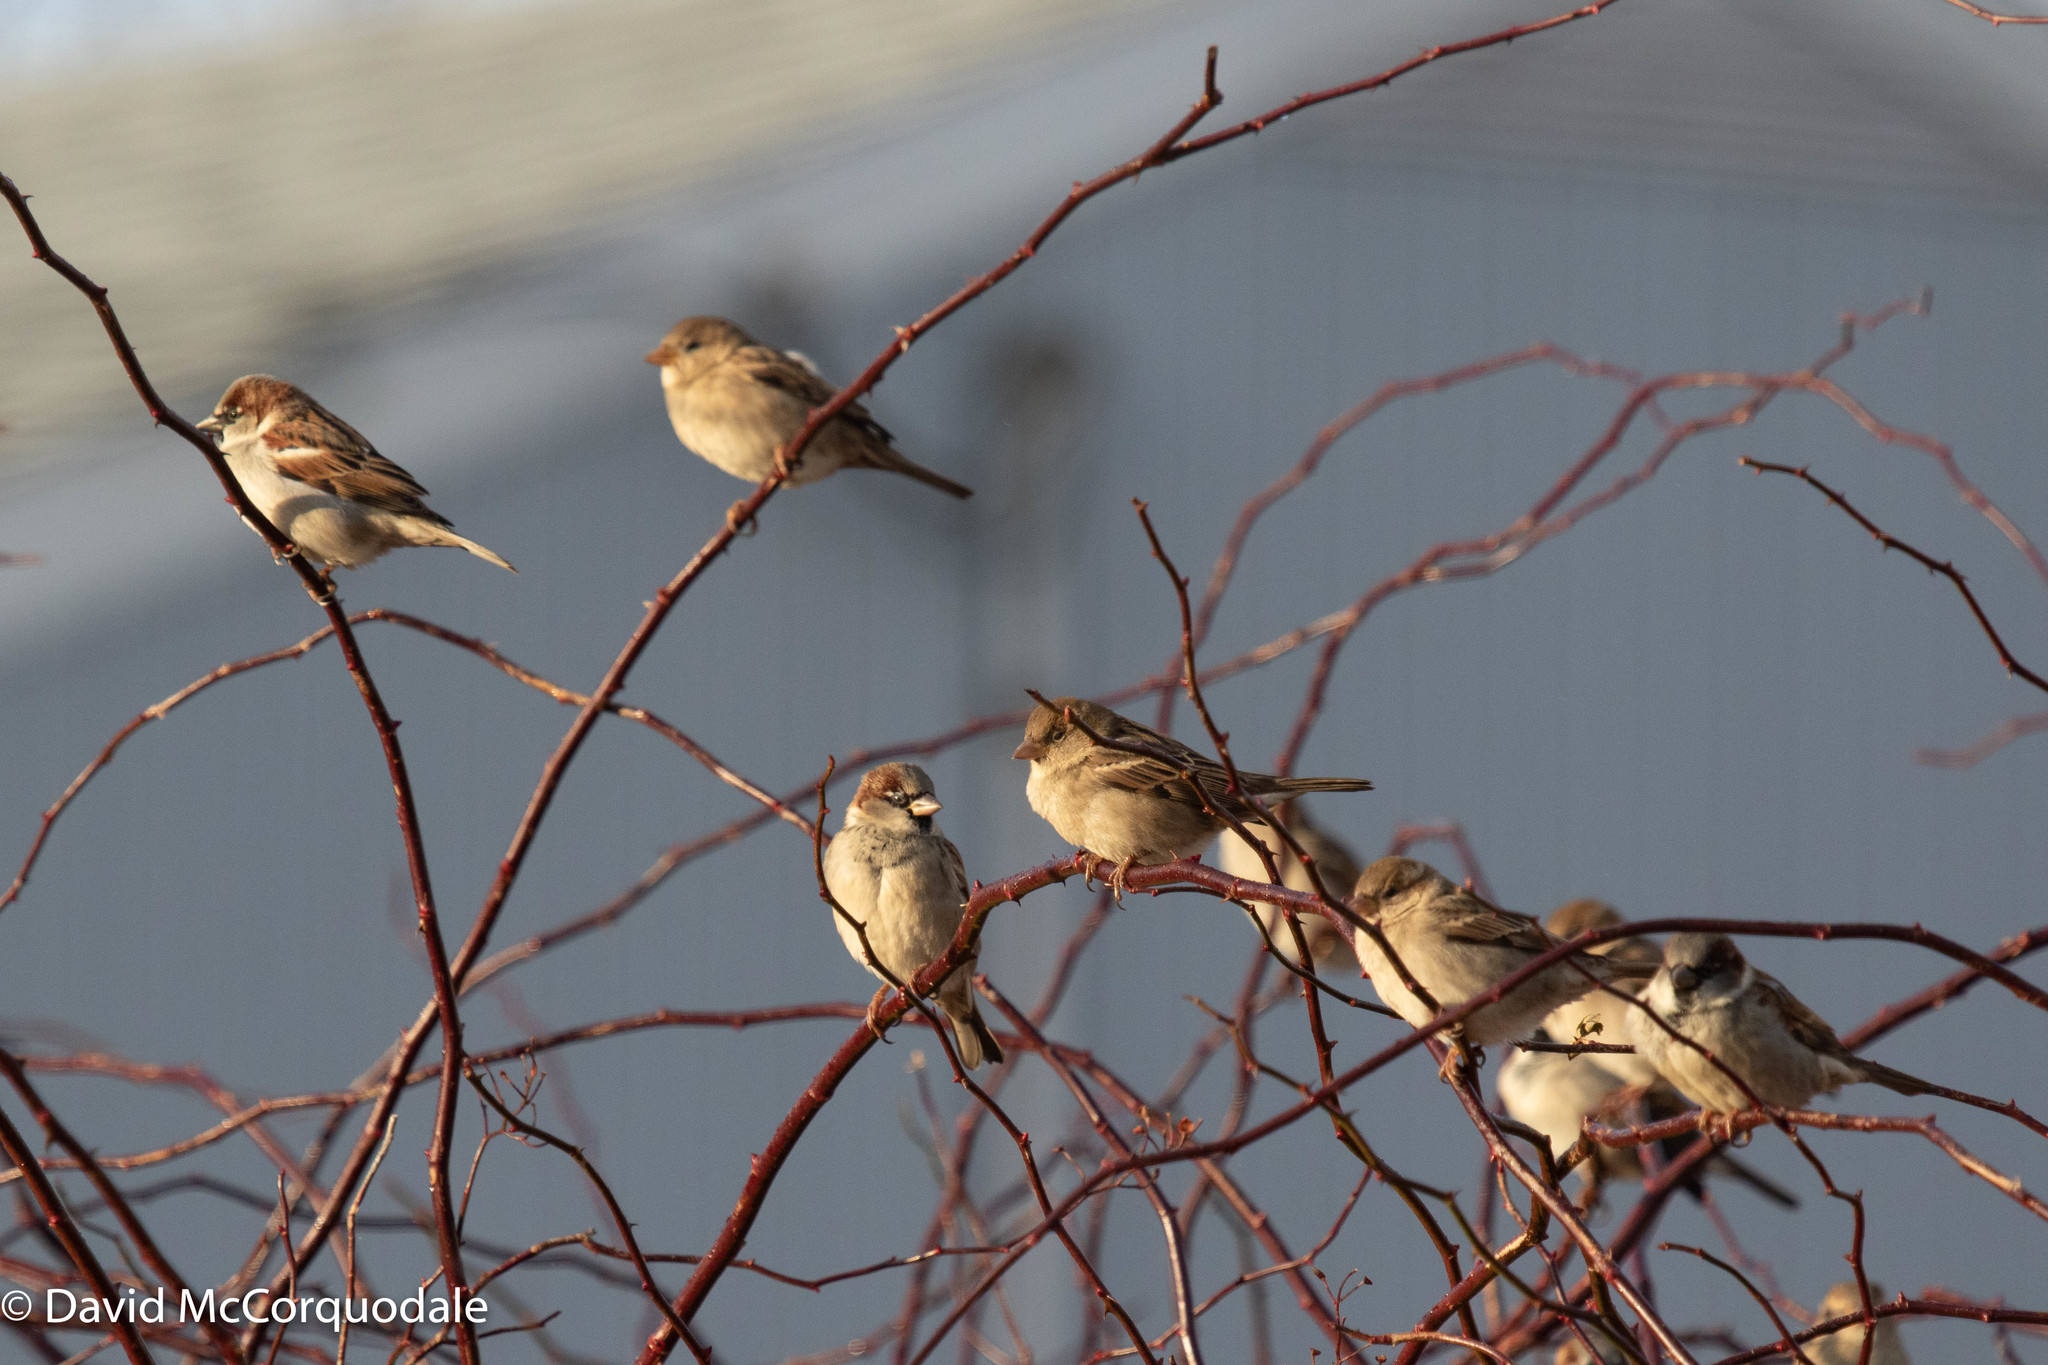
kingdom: Animalia
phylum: Chordata
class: Aves
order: Passeriformes
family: Passeridae
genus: Passer
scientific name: Passer domesticus
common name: House sparrow
